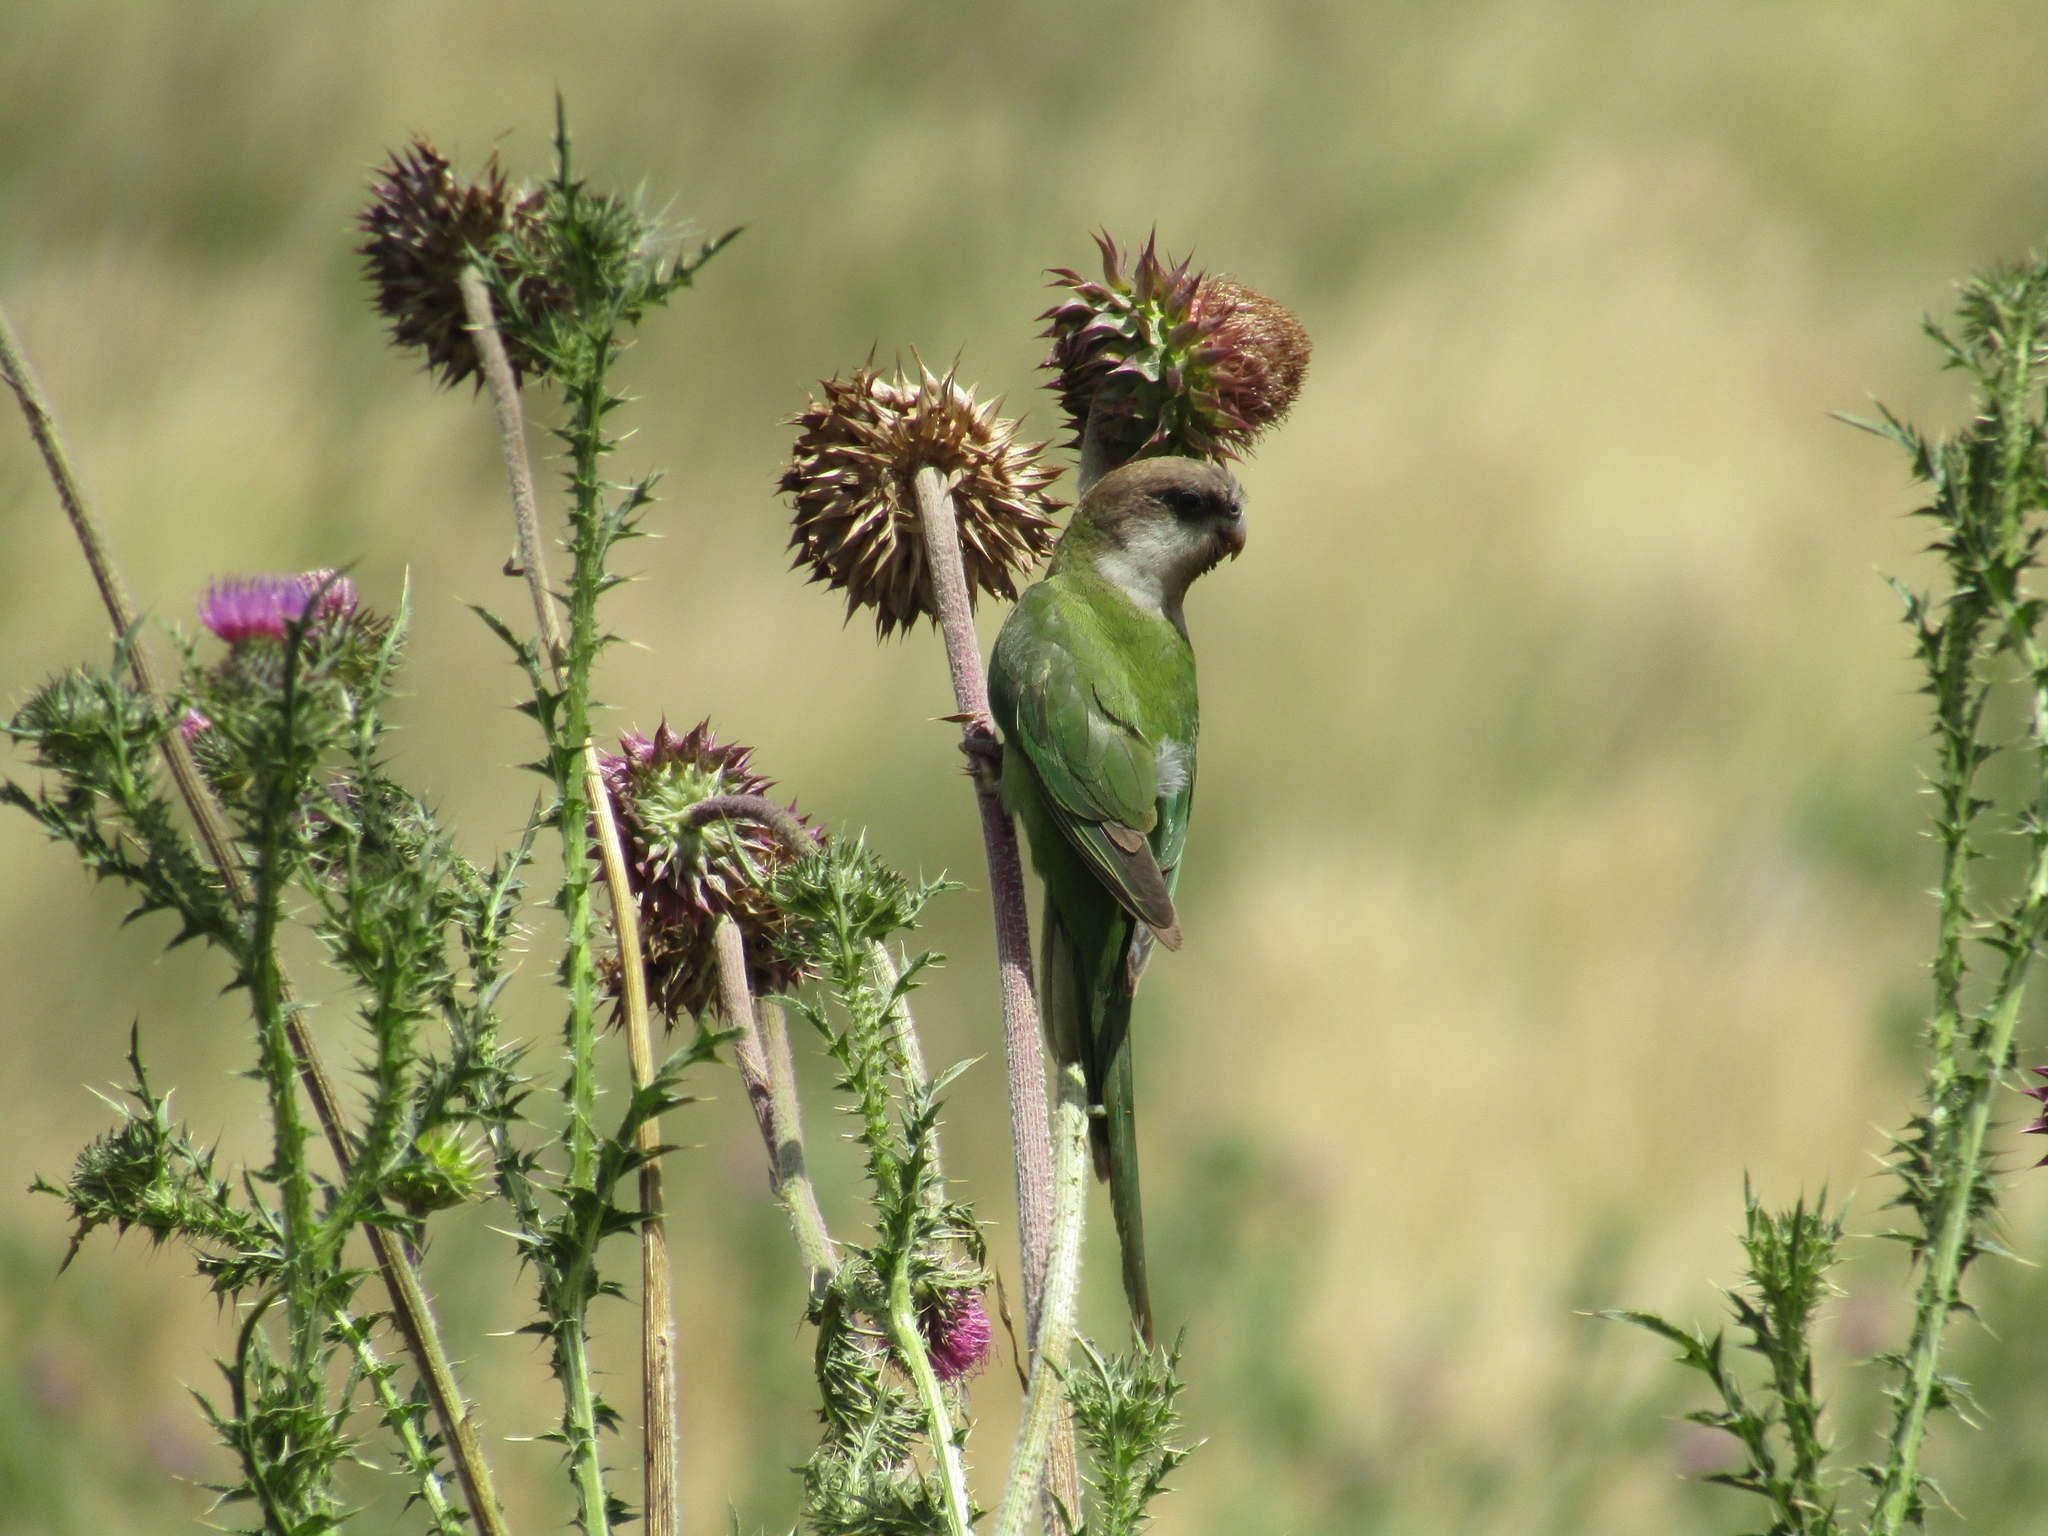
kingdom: Animalia
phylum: Chordata
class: Aves
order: Psittaciformes
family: Psittacidae
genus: Psilopsiagon
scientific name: Psilopsiagon aymara
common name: Grey-hooded parakeet
